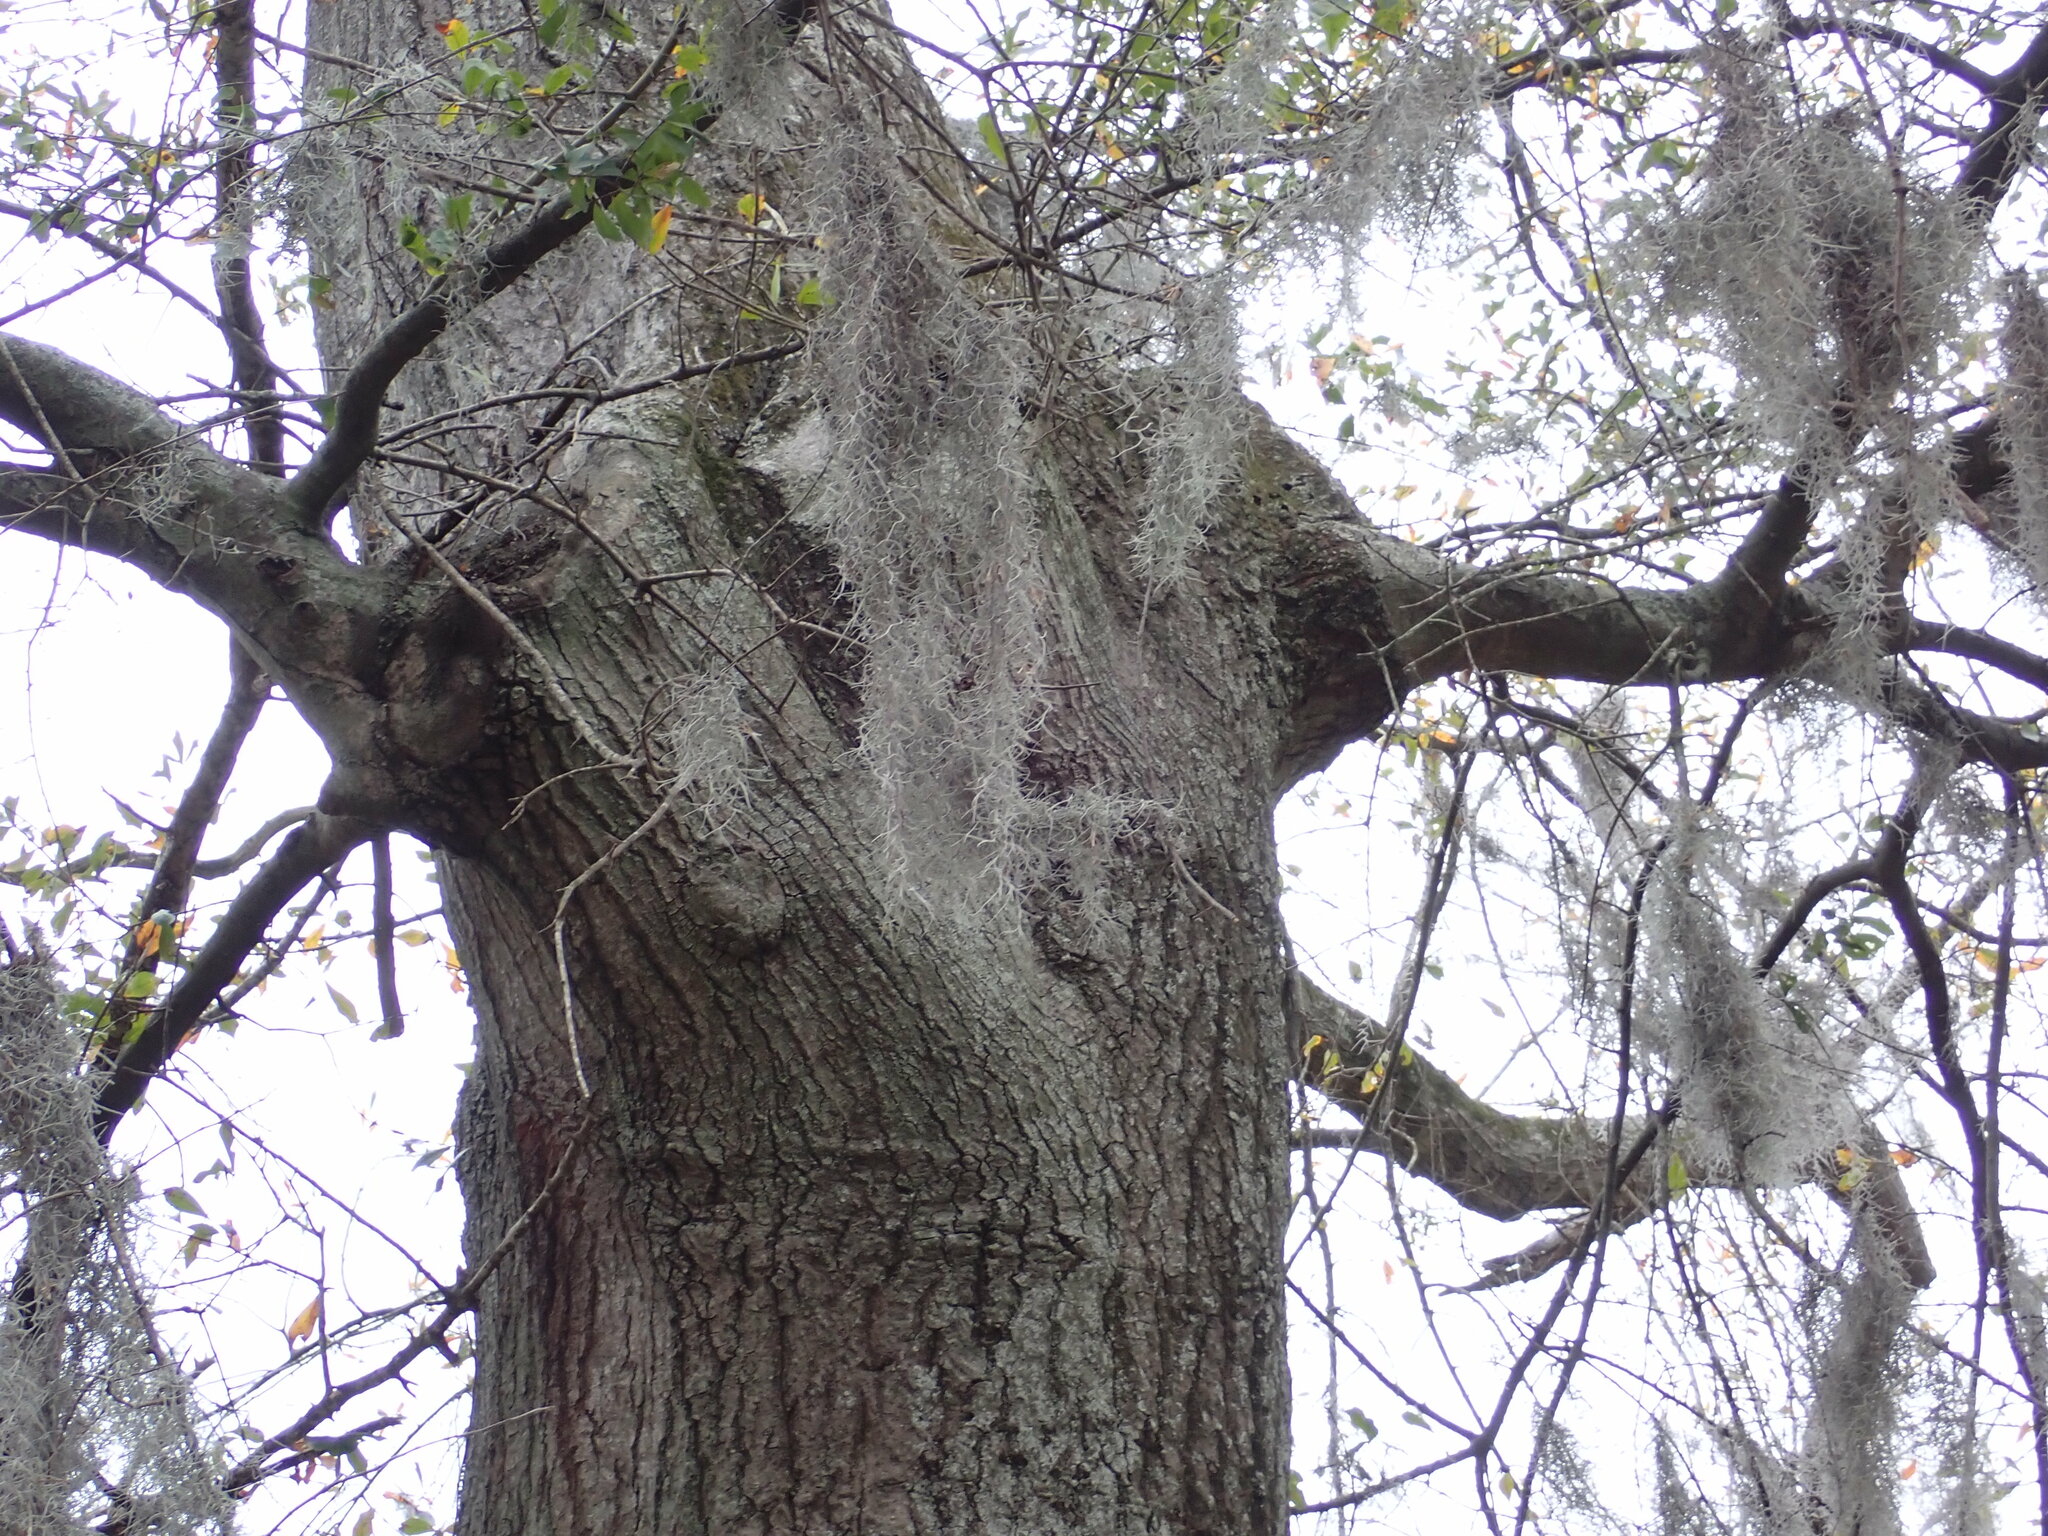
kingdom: Plantae
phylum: Tracheophyta
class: Liliopsida
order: Poales
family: Bromeliaceae
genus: Tillandsia
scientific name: Tillandsia usneoides
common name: Spanish moss
